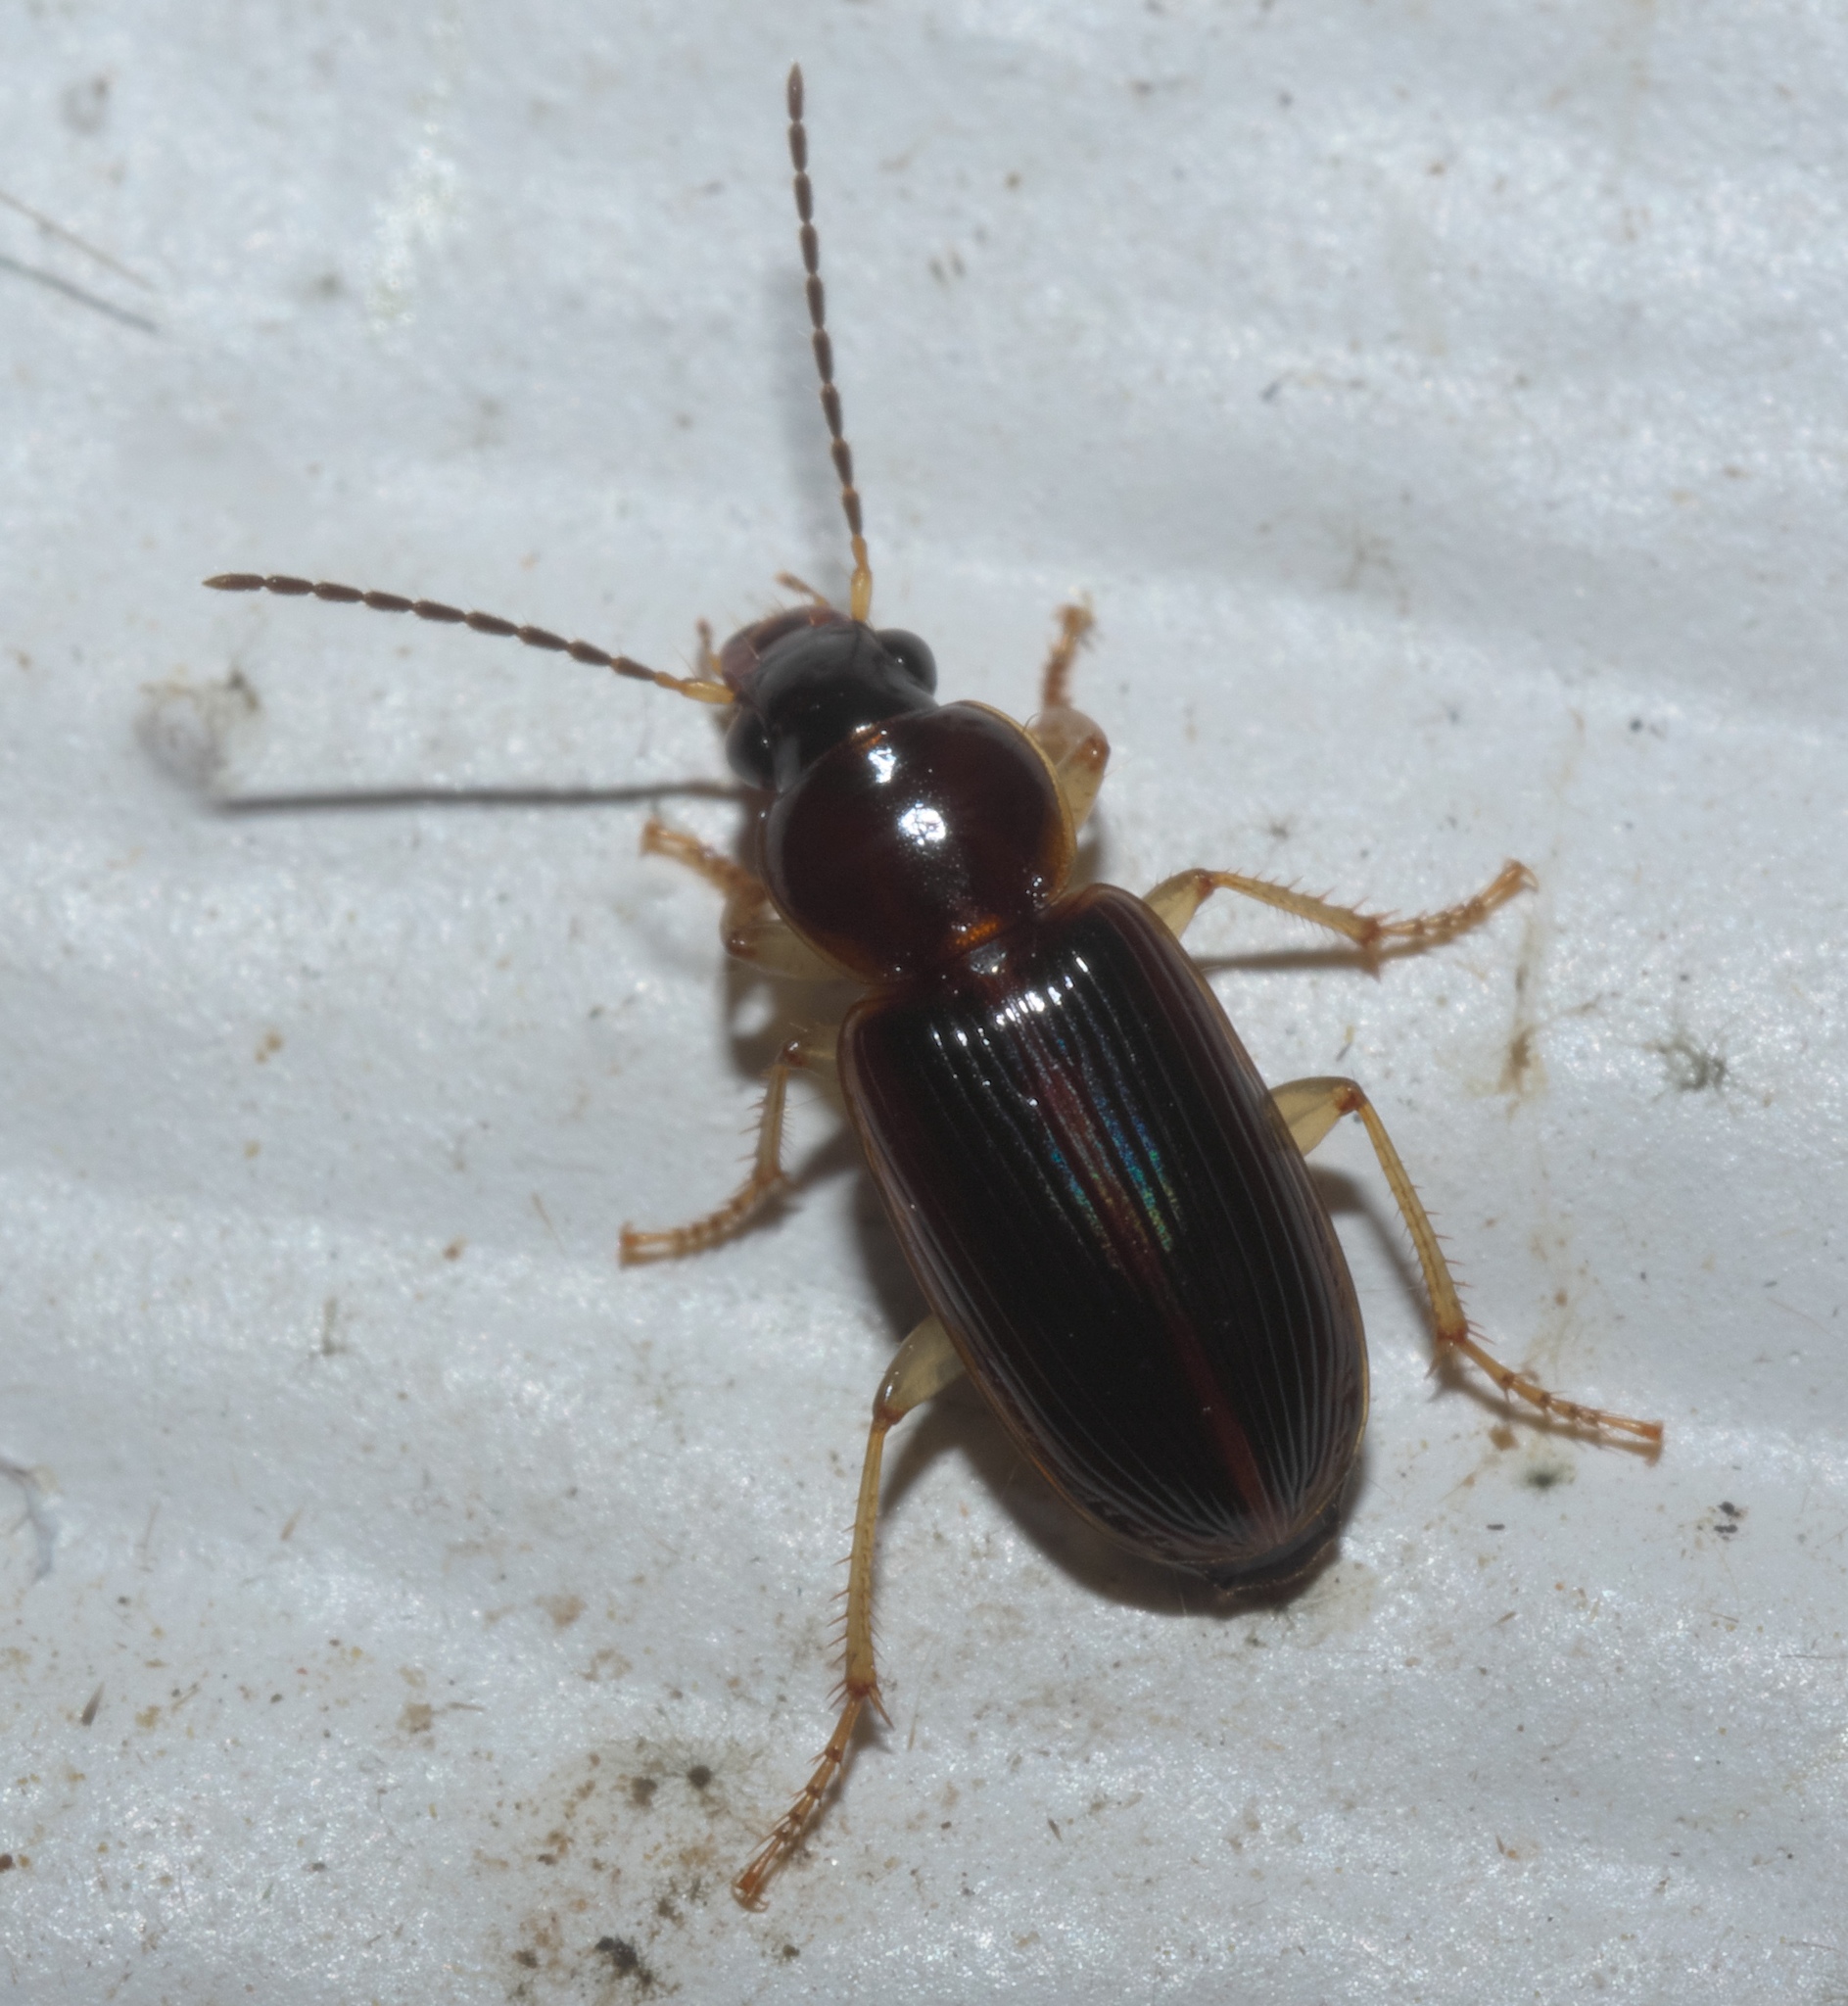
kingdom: Animalia
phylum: Arthropoda
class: Insecta
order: Coleoptera
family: Carabidae
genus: Stenolophus
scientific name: Stenolophus ochropezus
